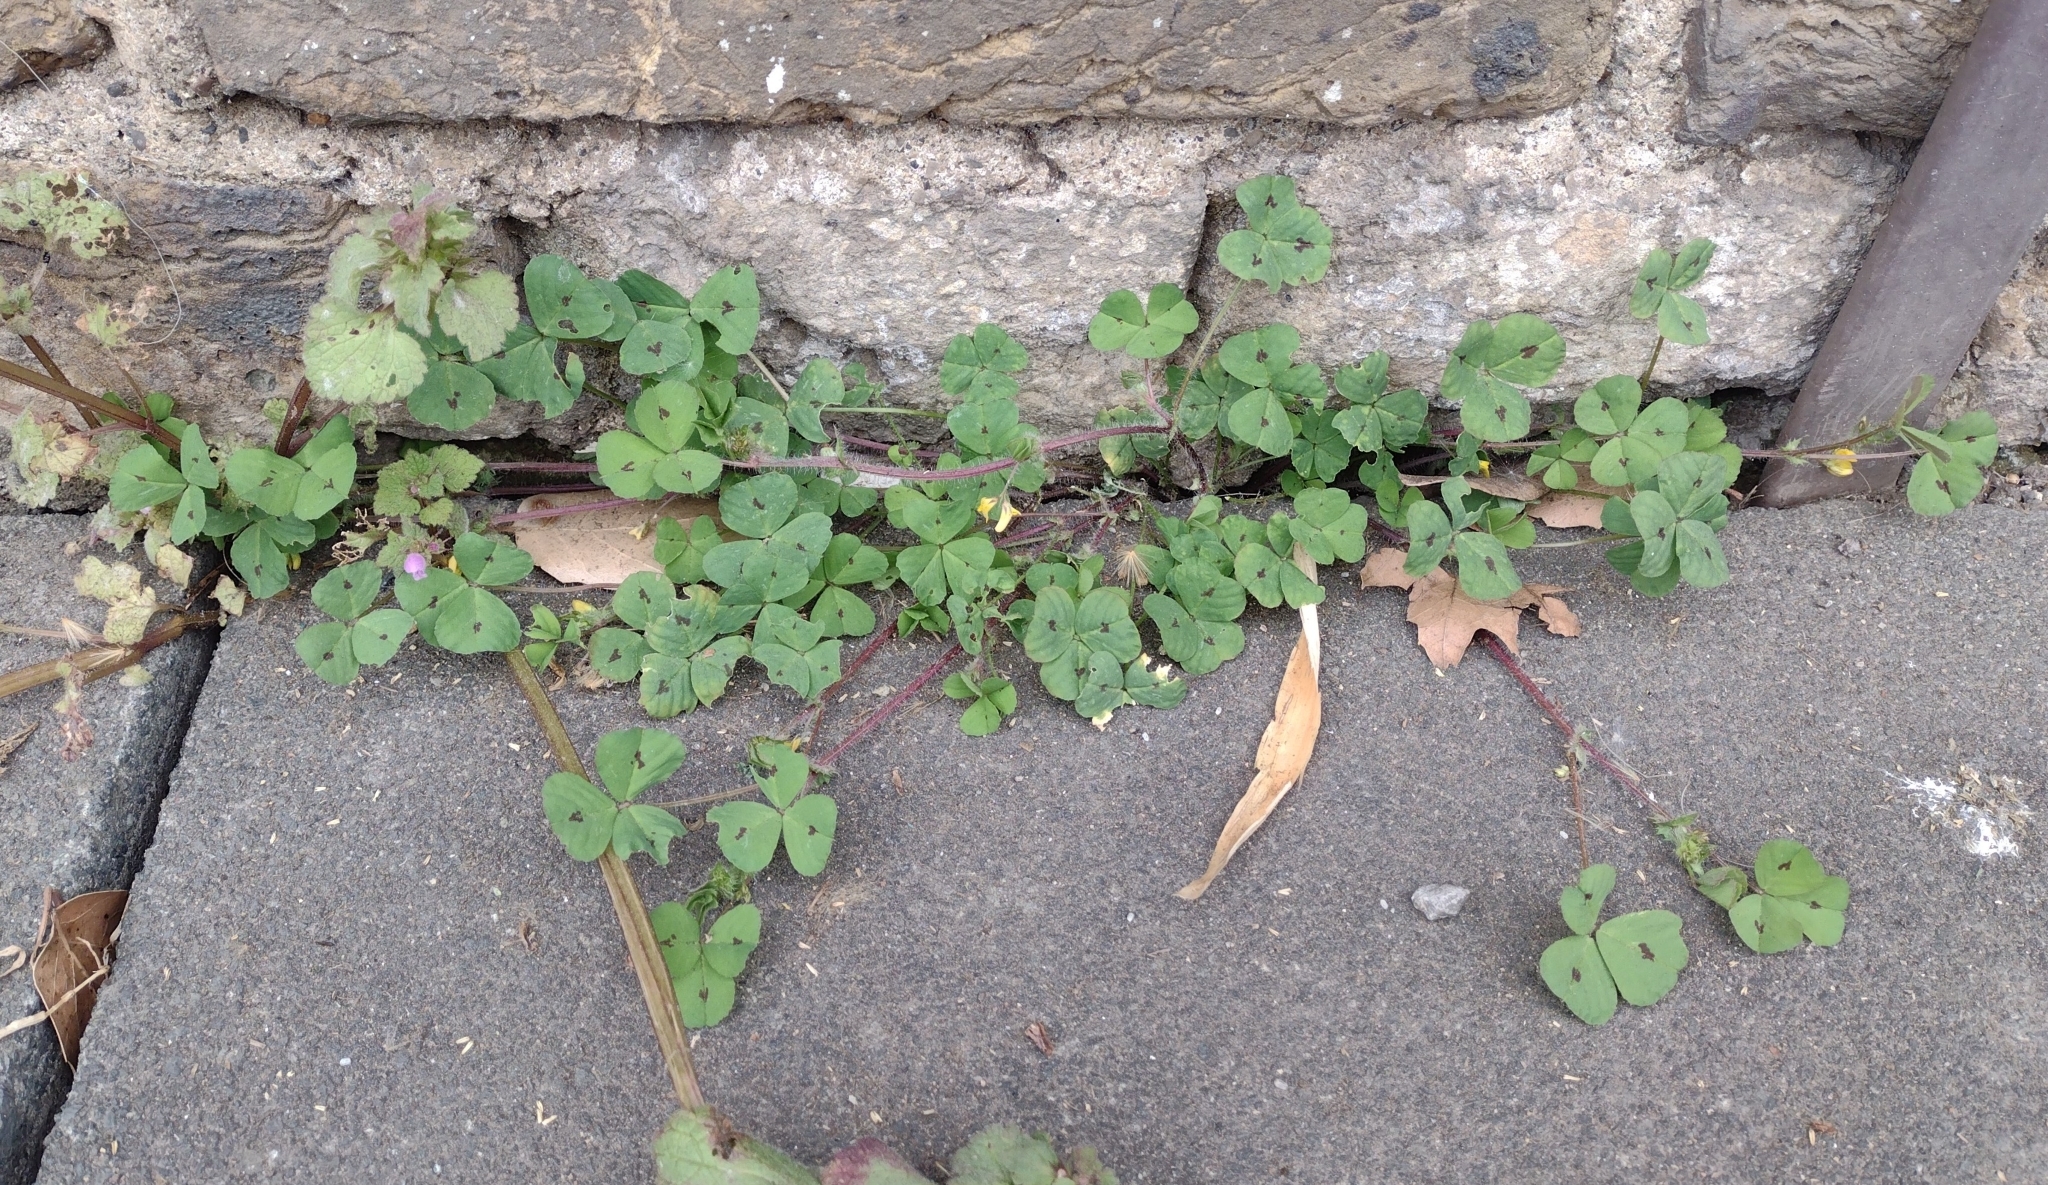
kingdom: Plantae
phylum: Tracheophyta
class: Magnoliopsida
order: Fabales
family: Fabaceae
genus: Medicago
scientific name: Medicago arabica
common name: Spotted medick
